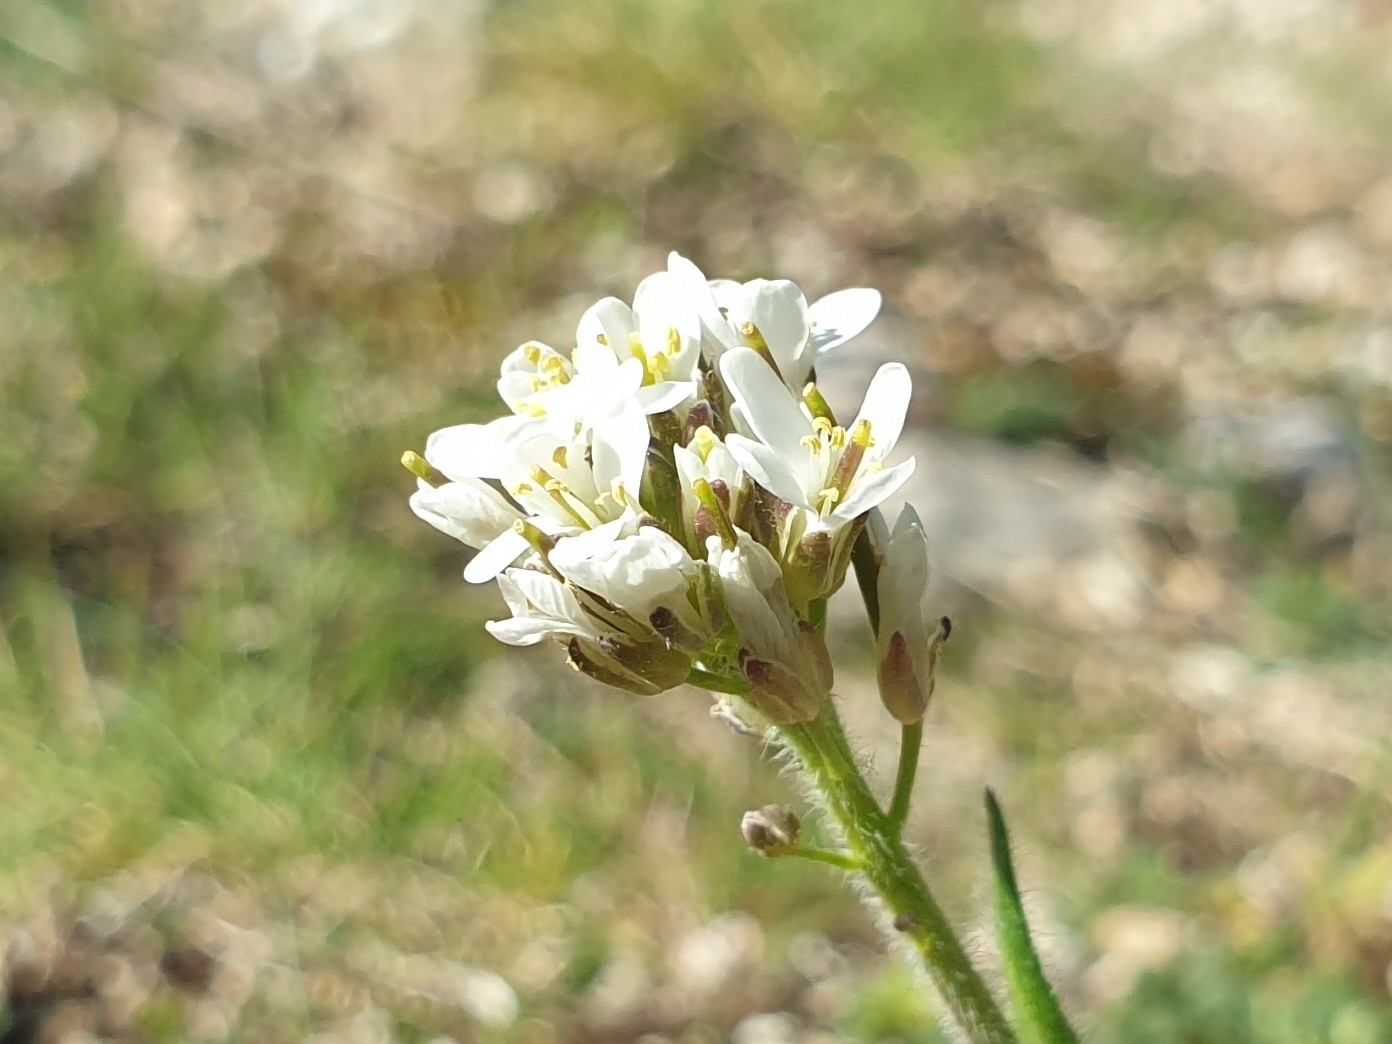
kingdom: Plantae
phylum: Tracheophyta
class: Magnoliopsida
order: Brassicales
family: Brassicaceae
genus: Arabis
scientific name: Arabis hirsuta
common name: Hairy rock-cress
